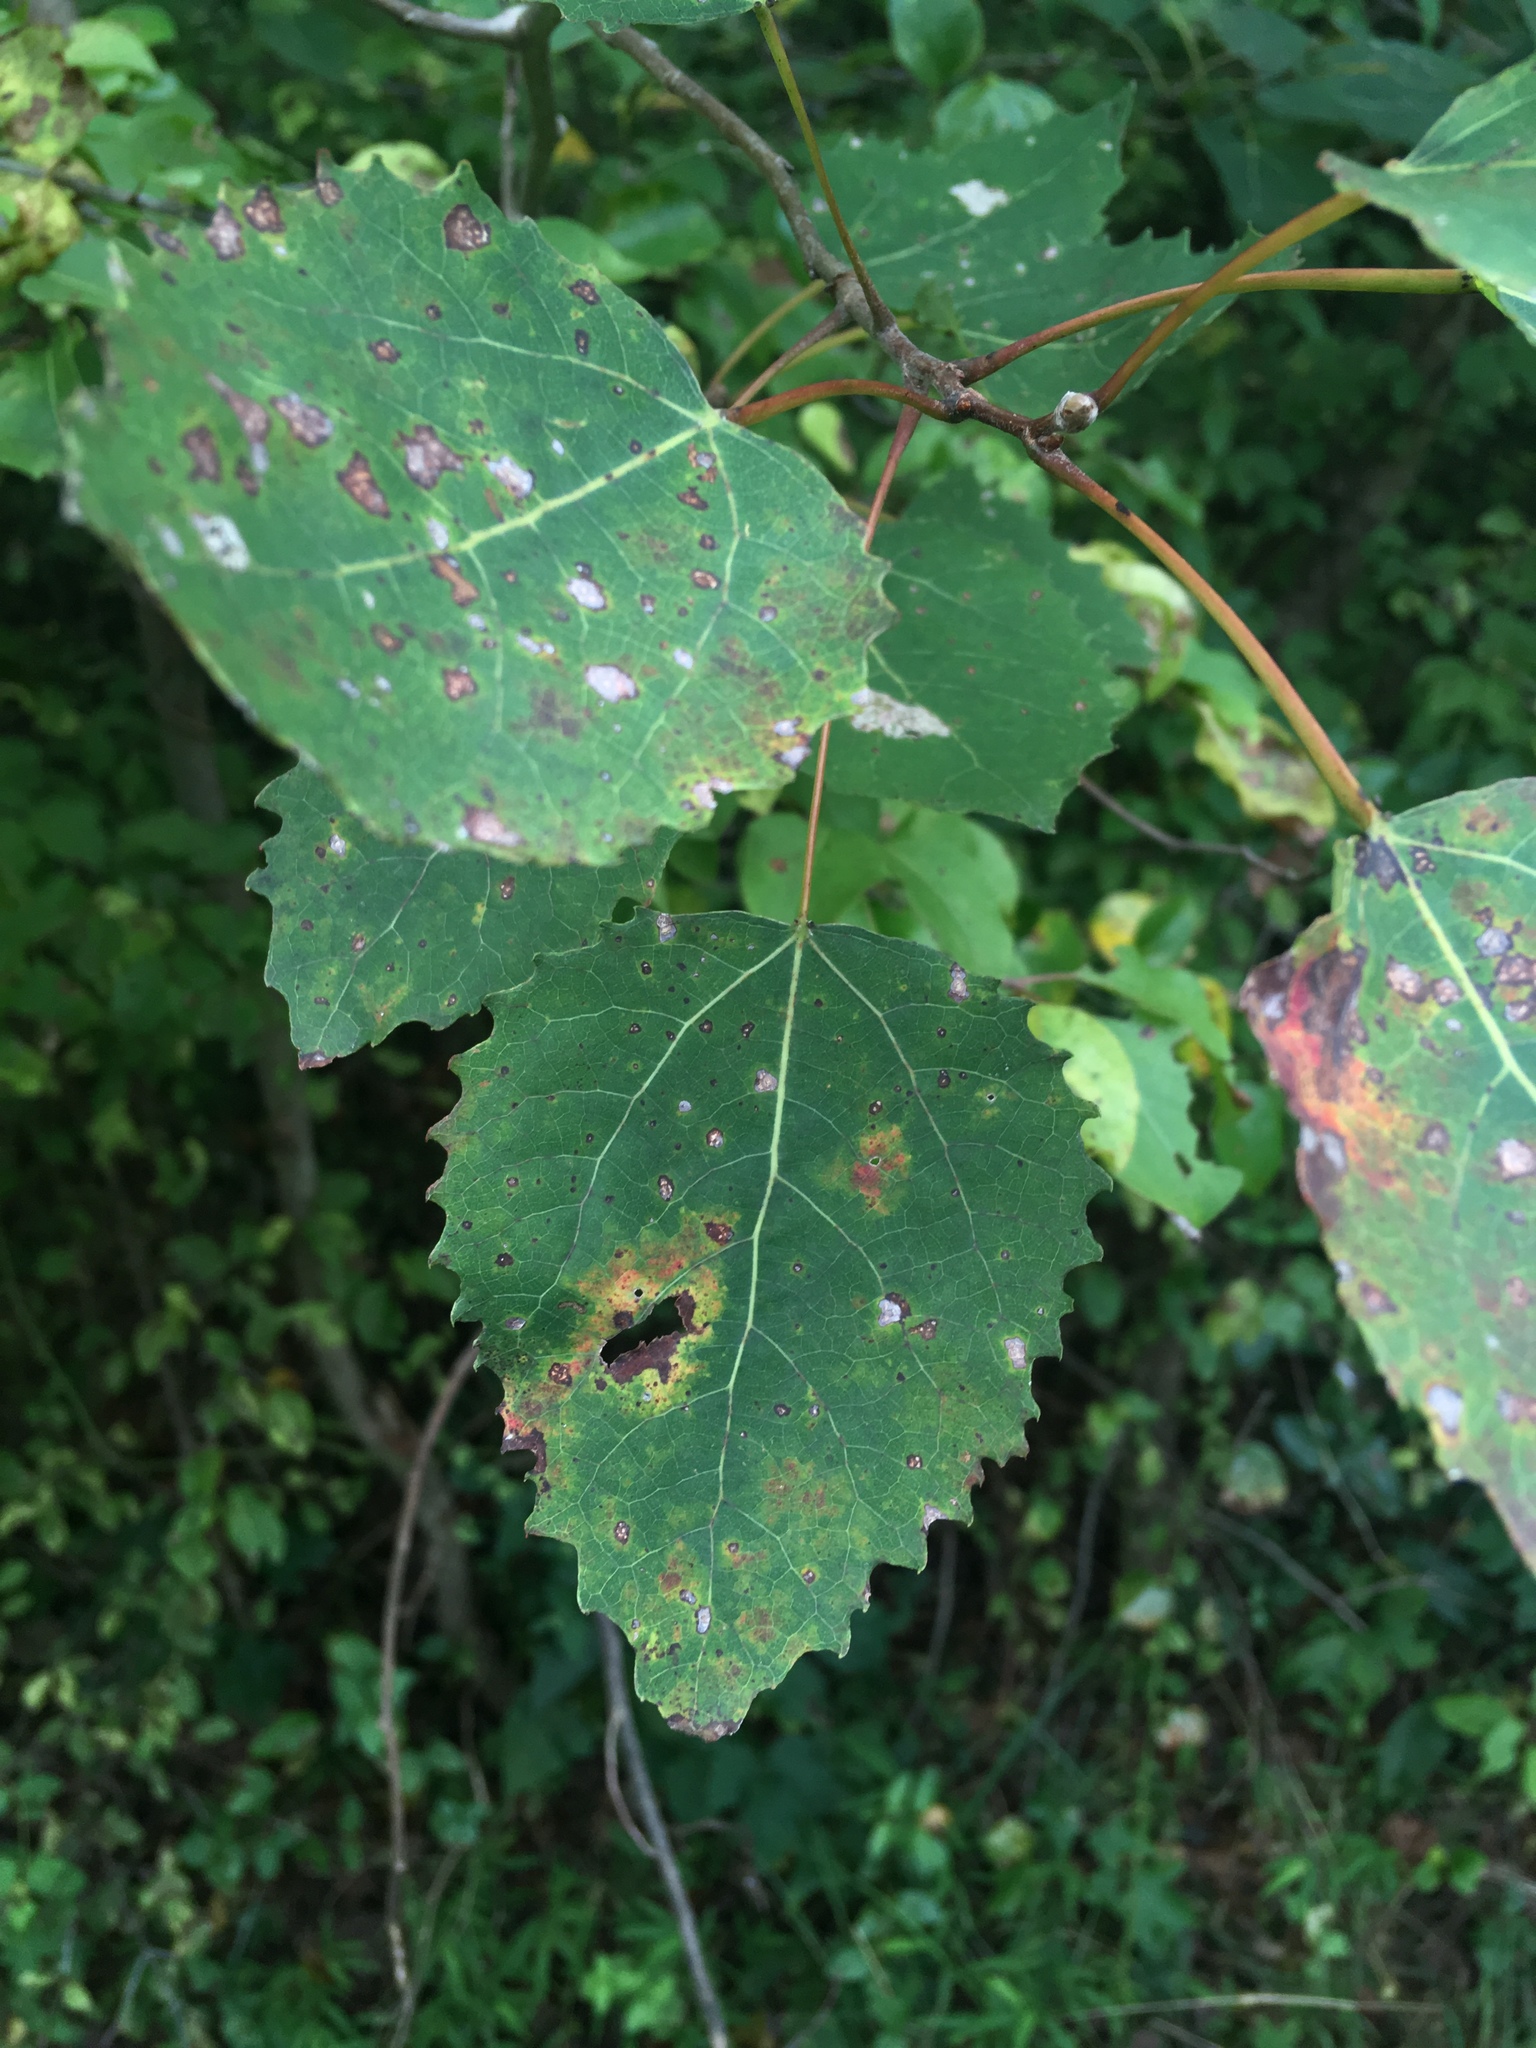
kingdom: Plantae
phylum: Tracheophyta
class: Magnoliopsida
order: Malpighiales
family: Salicaceae
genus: Populus
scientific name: Populus grandidentata
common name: Bigtooth aspen
